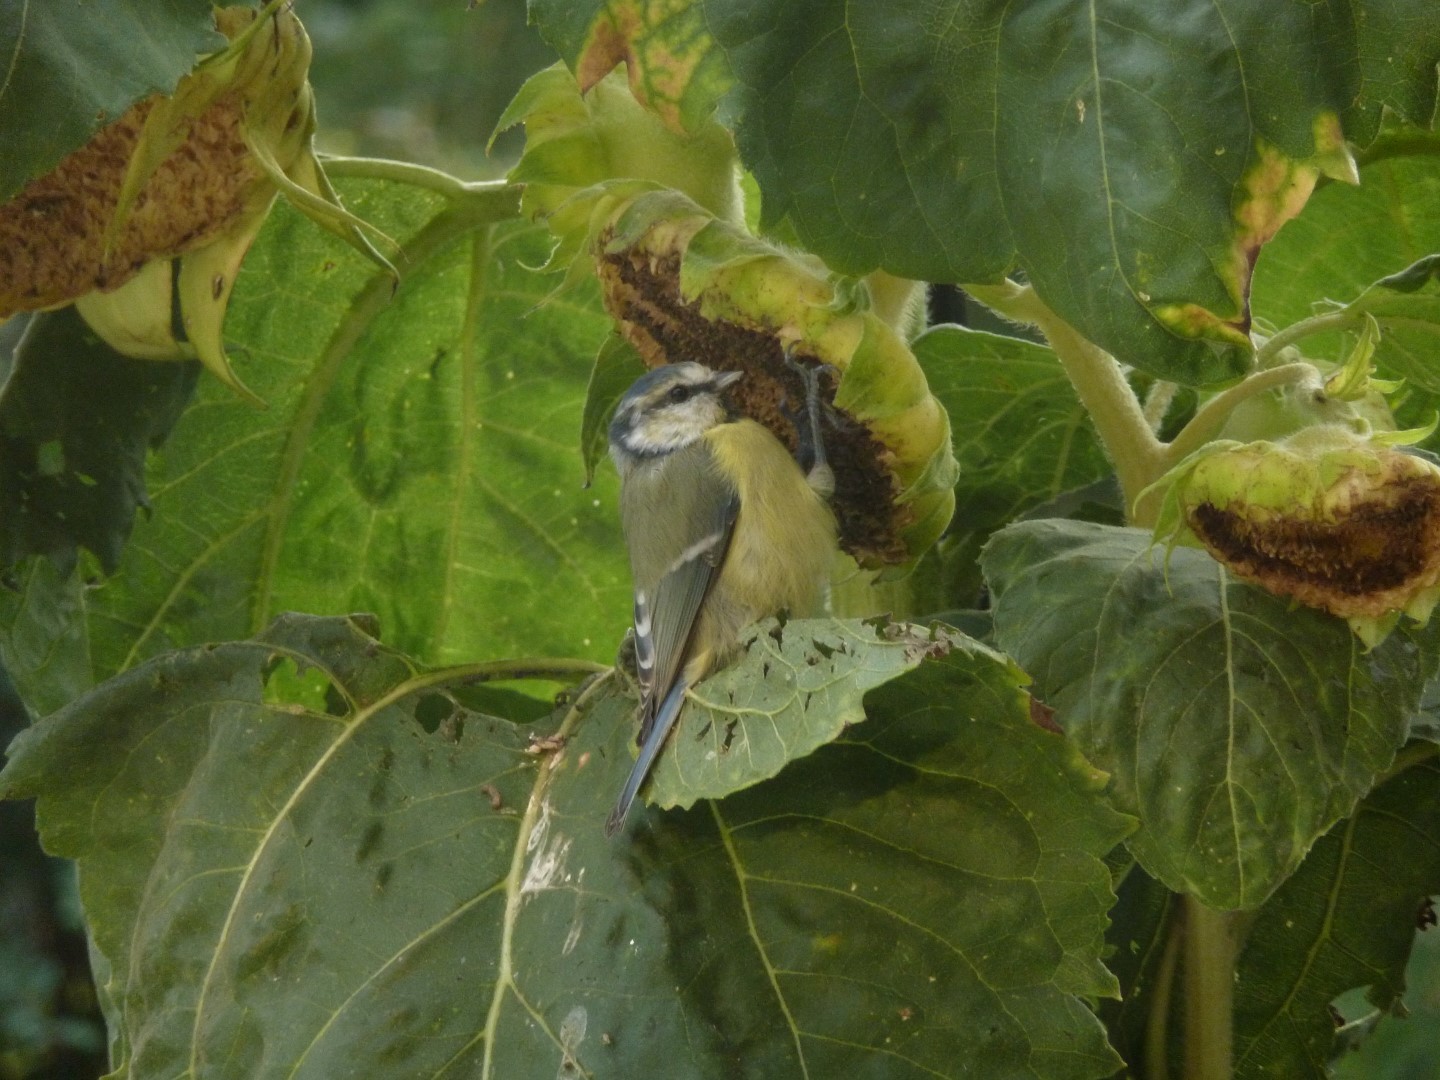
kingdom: Animalia
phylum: Chordata
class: Aves
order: Passeriformes
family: Paridae
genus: Cyanistes
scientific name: Cyanistes caeruleus
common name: Eurasian blue tit
